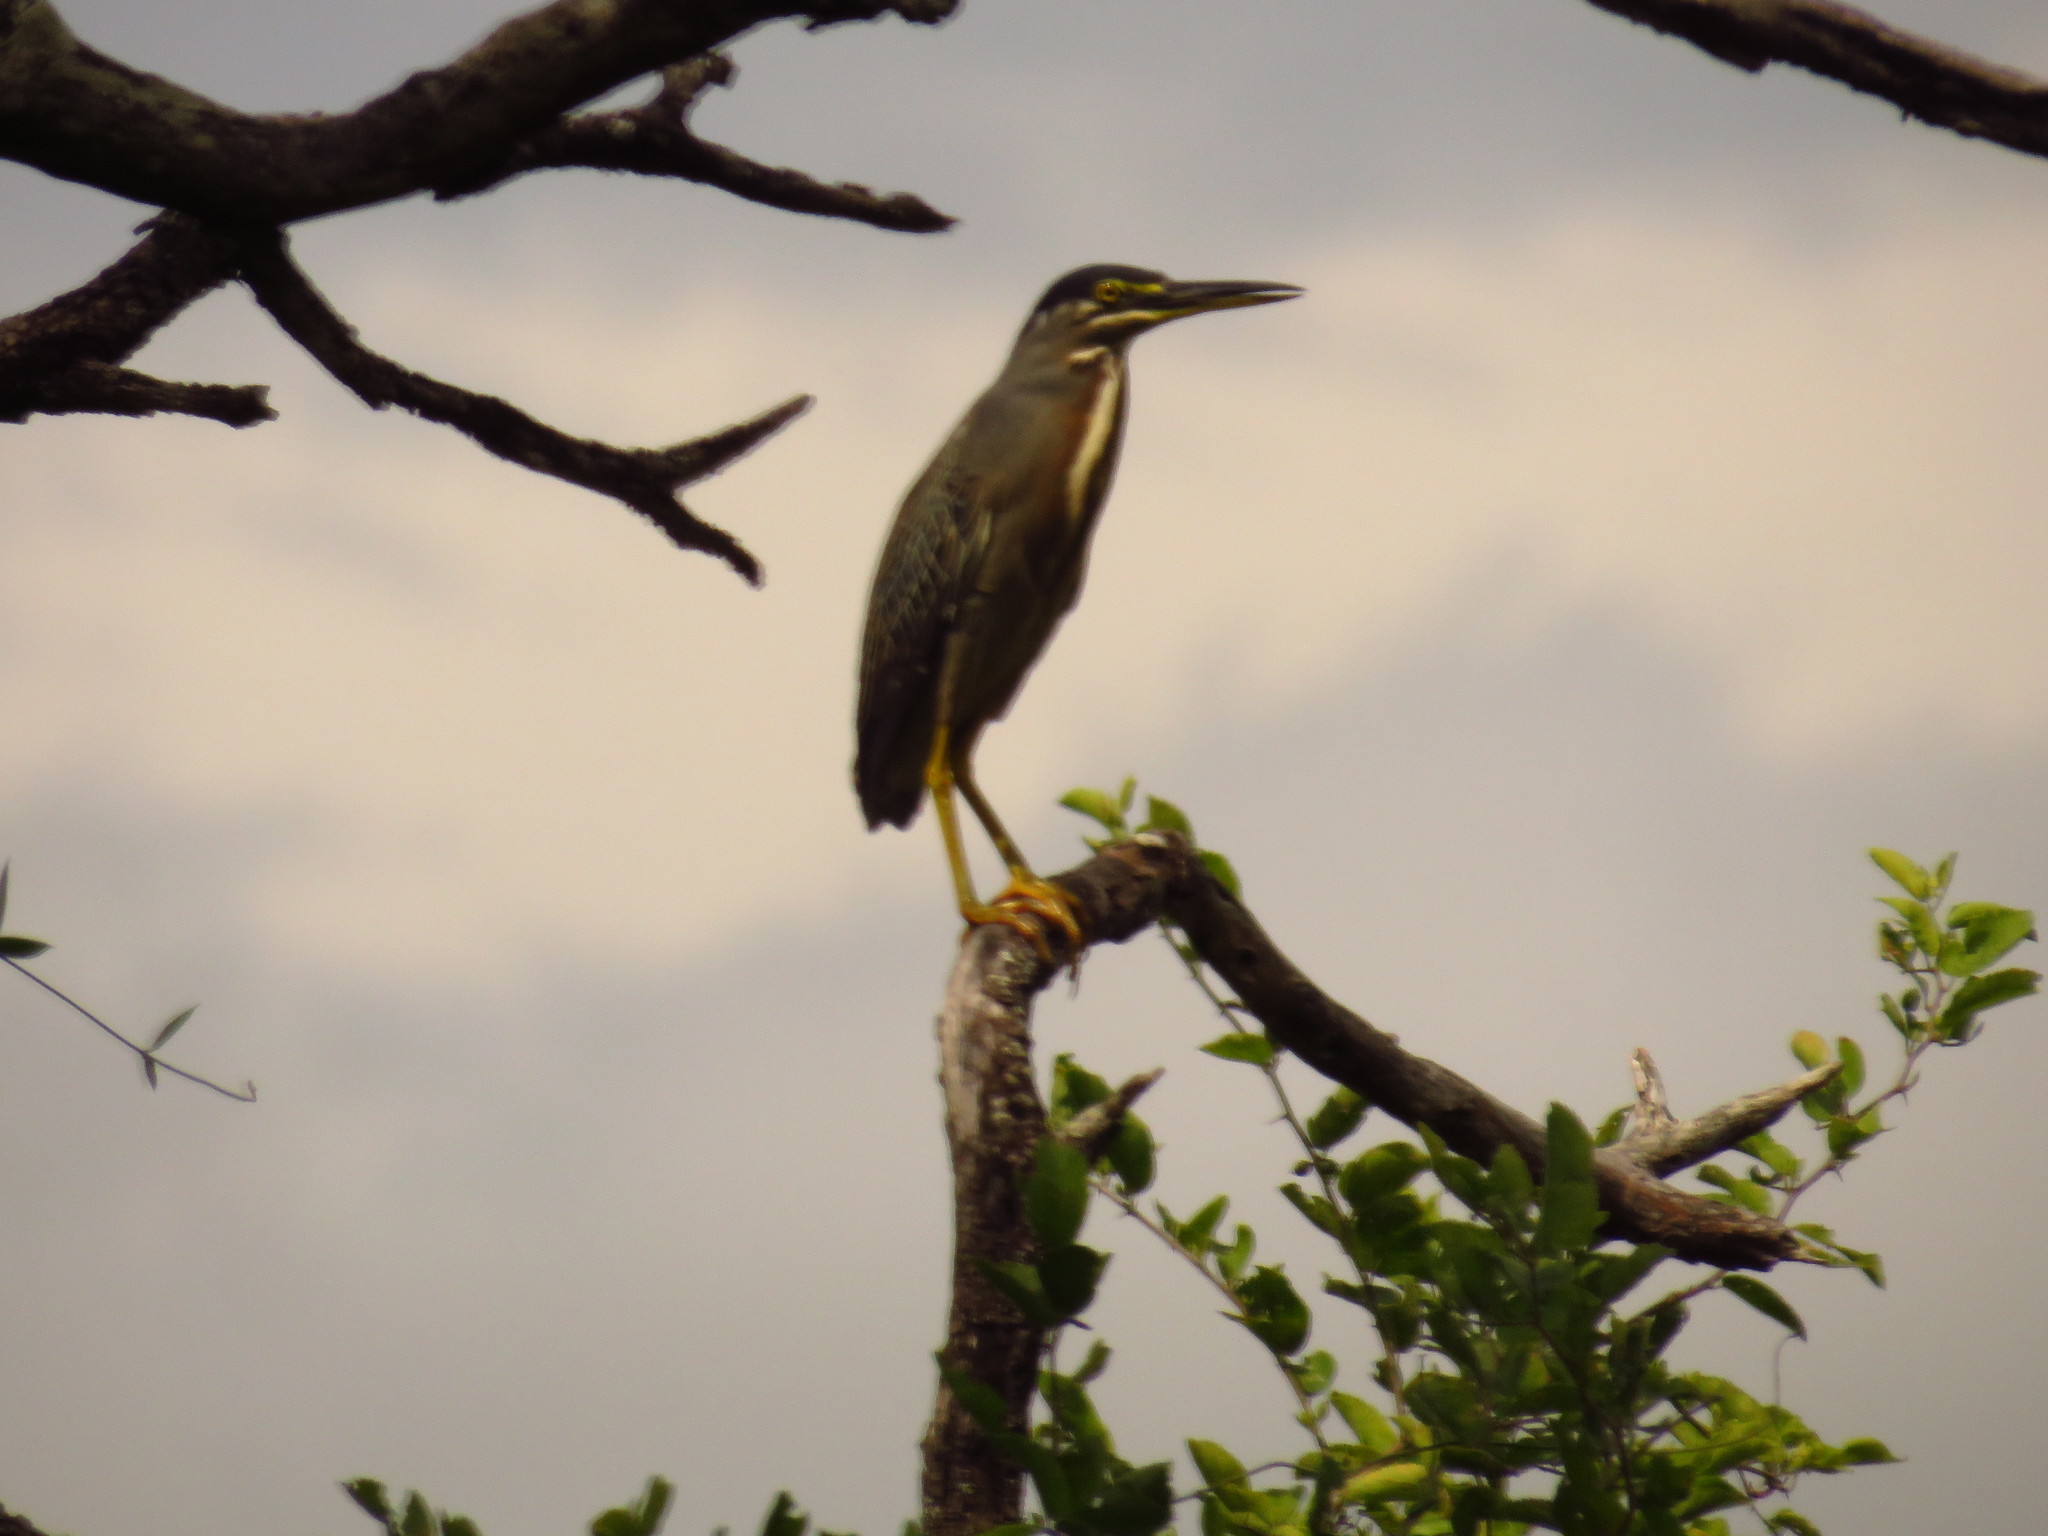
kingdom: Animalia
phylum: Chordata
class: Aves
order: Pelecaniformes
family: Ardeidae
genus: Butorides
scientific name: Butorides striata
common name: Striated heron
